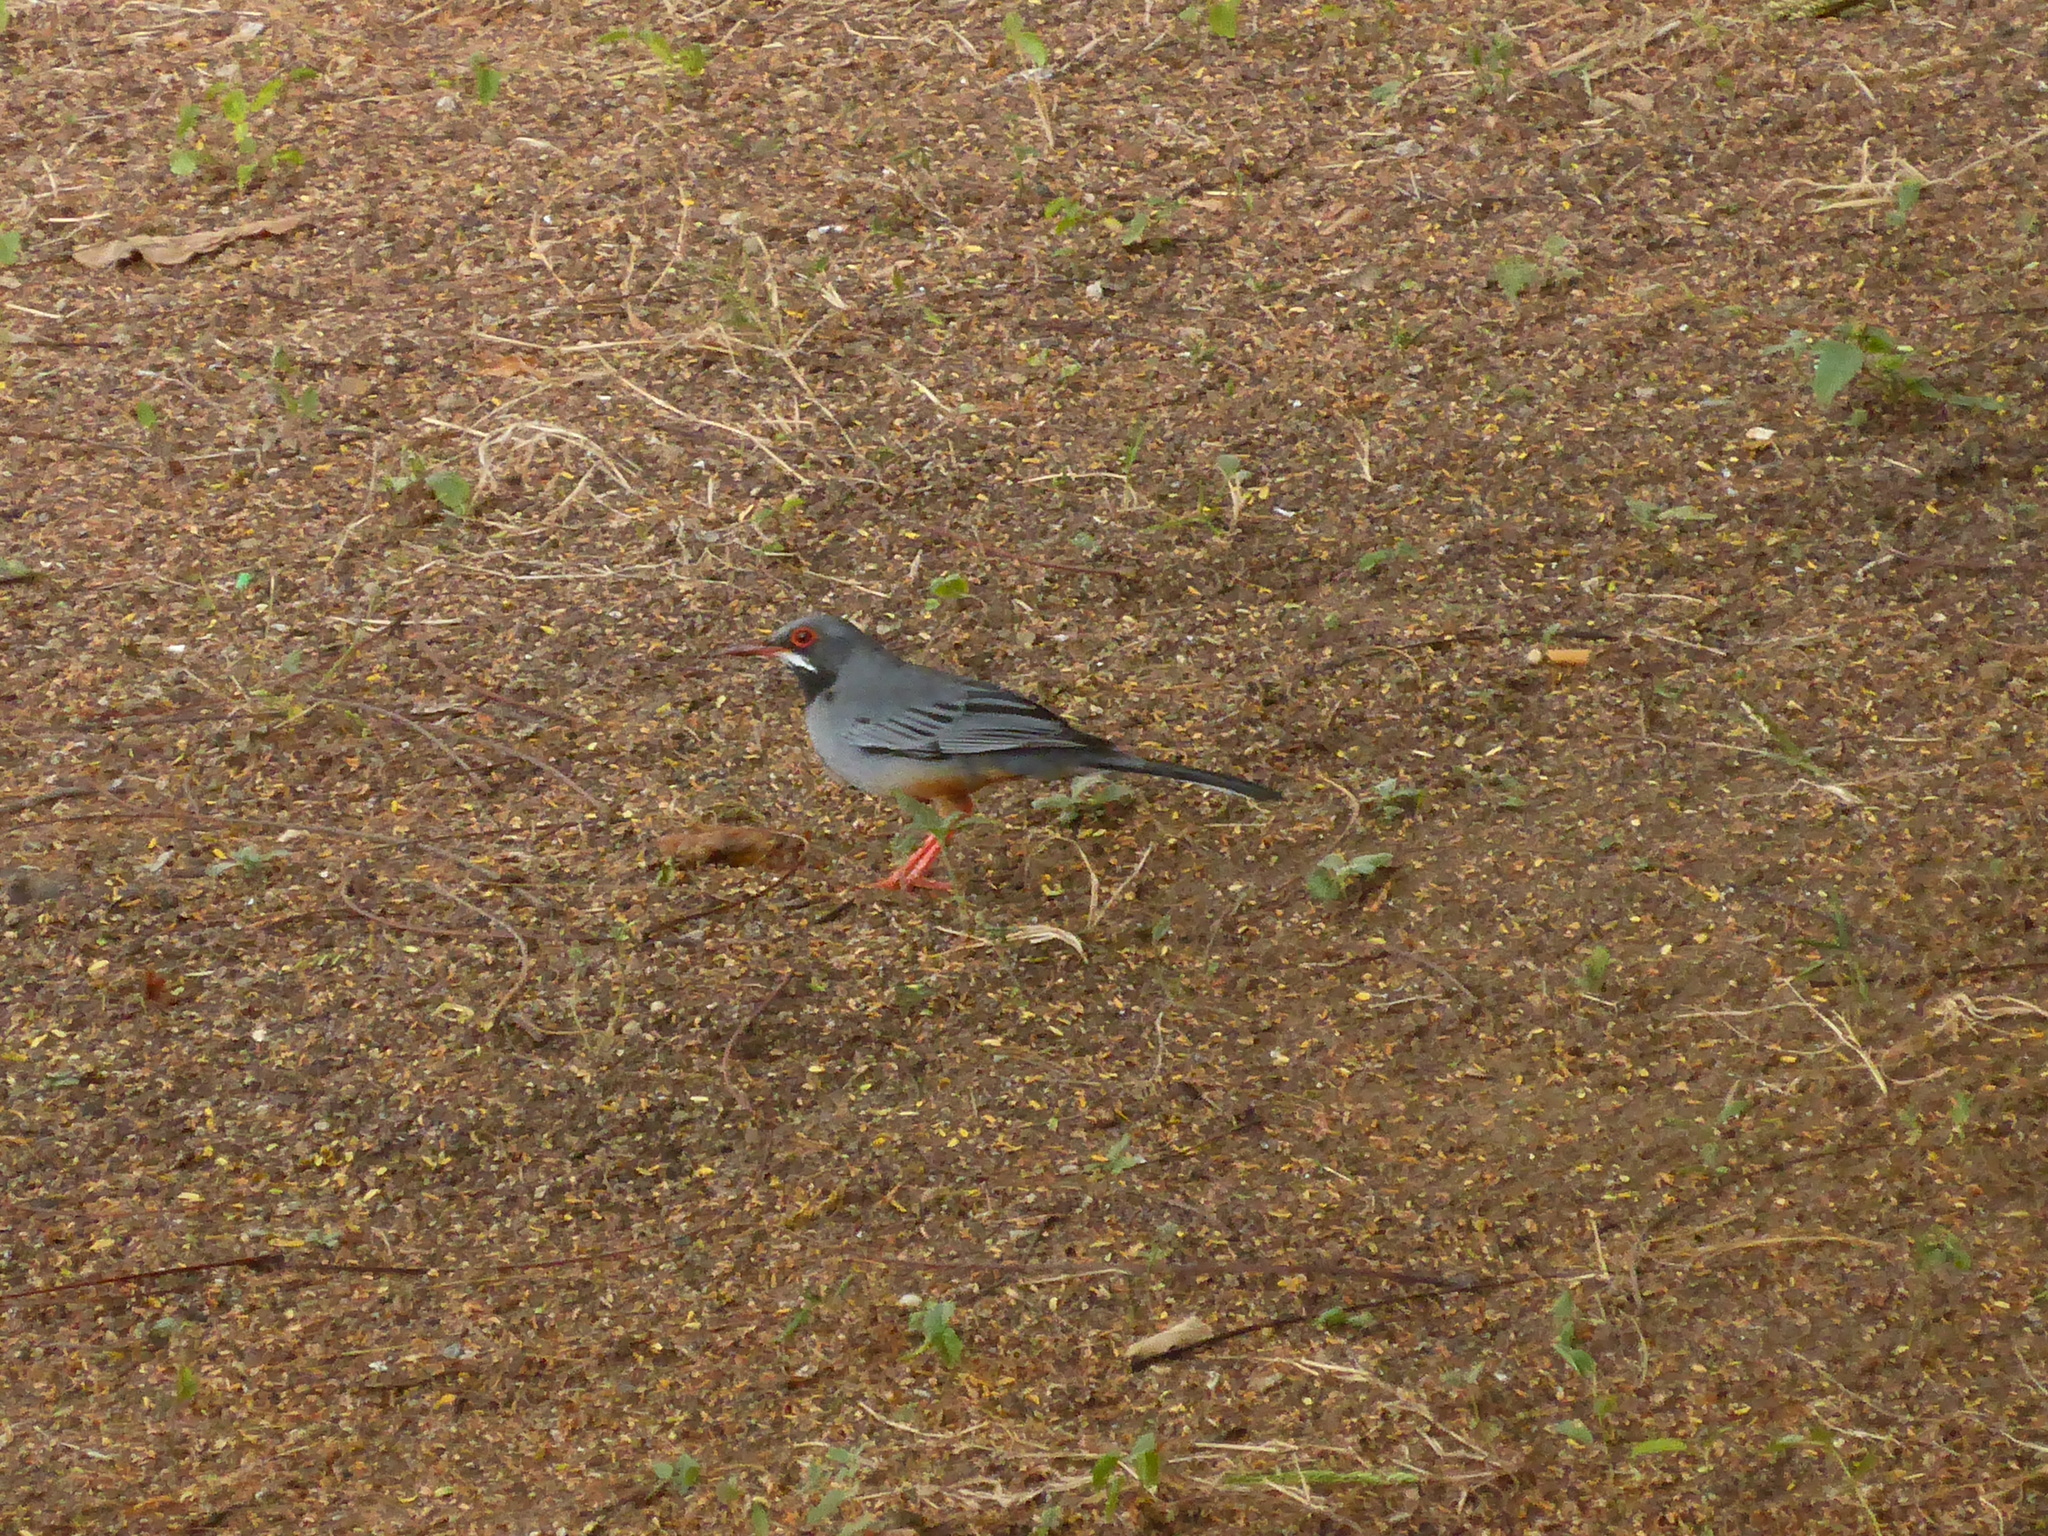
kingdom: Animalia
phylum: Chordata
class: Aves
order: Passeriformes
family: Turdidae
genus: Turdus
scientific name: Turdus plumbeus
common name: Red-legged thrush
